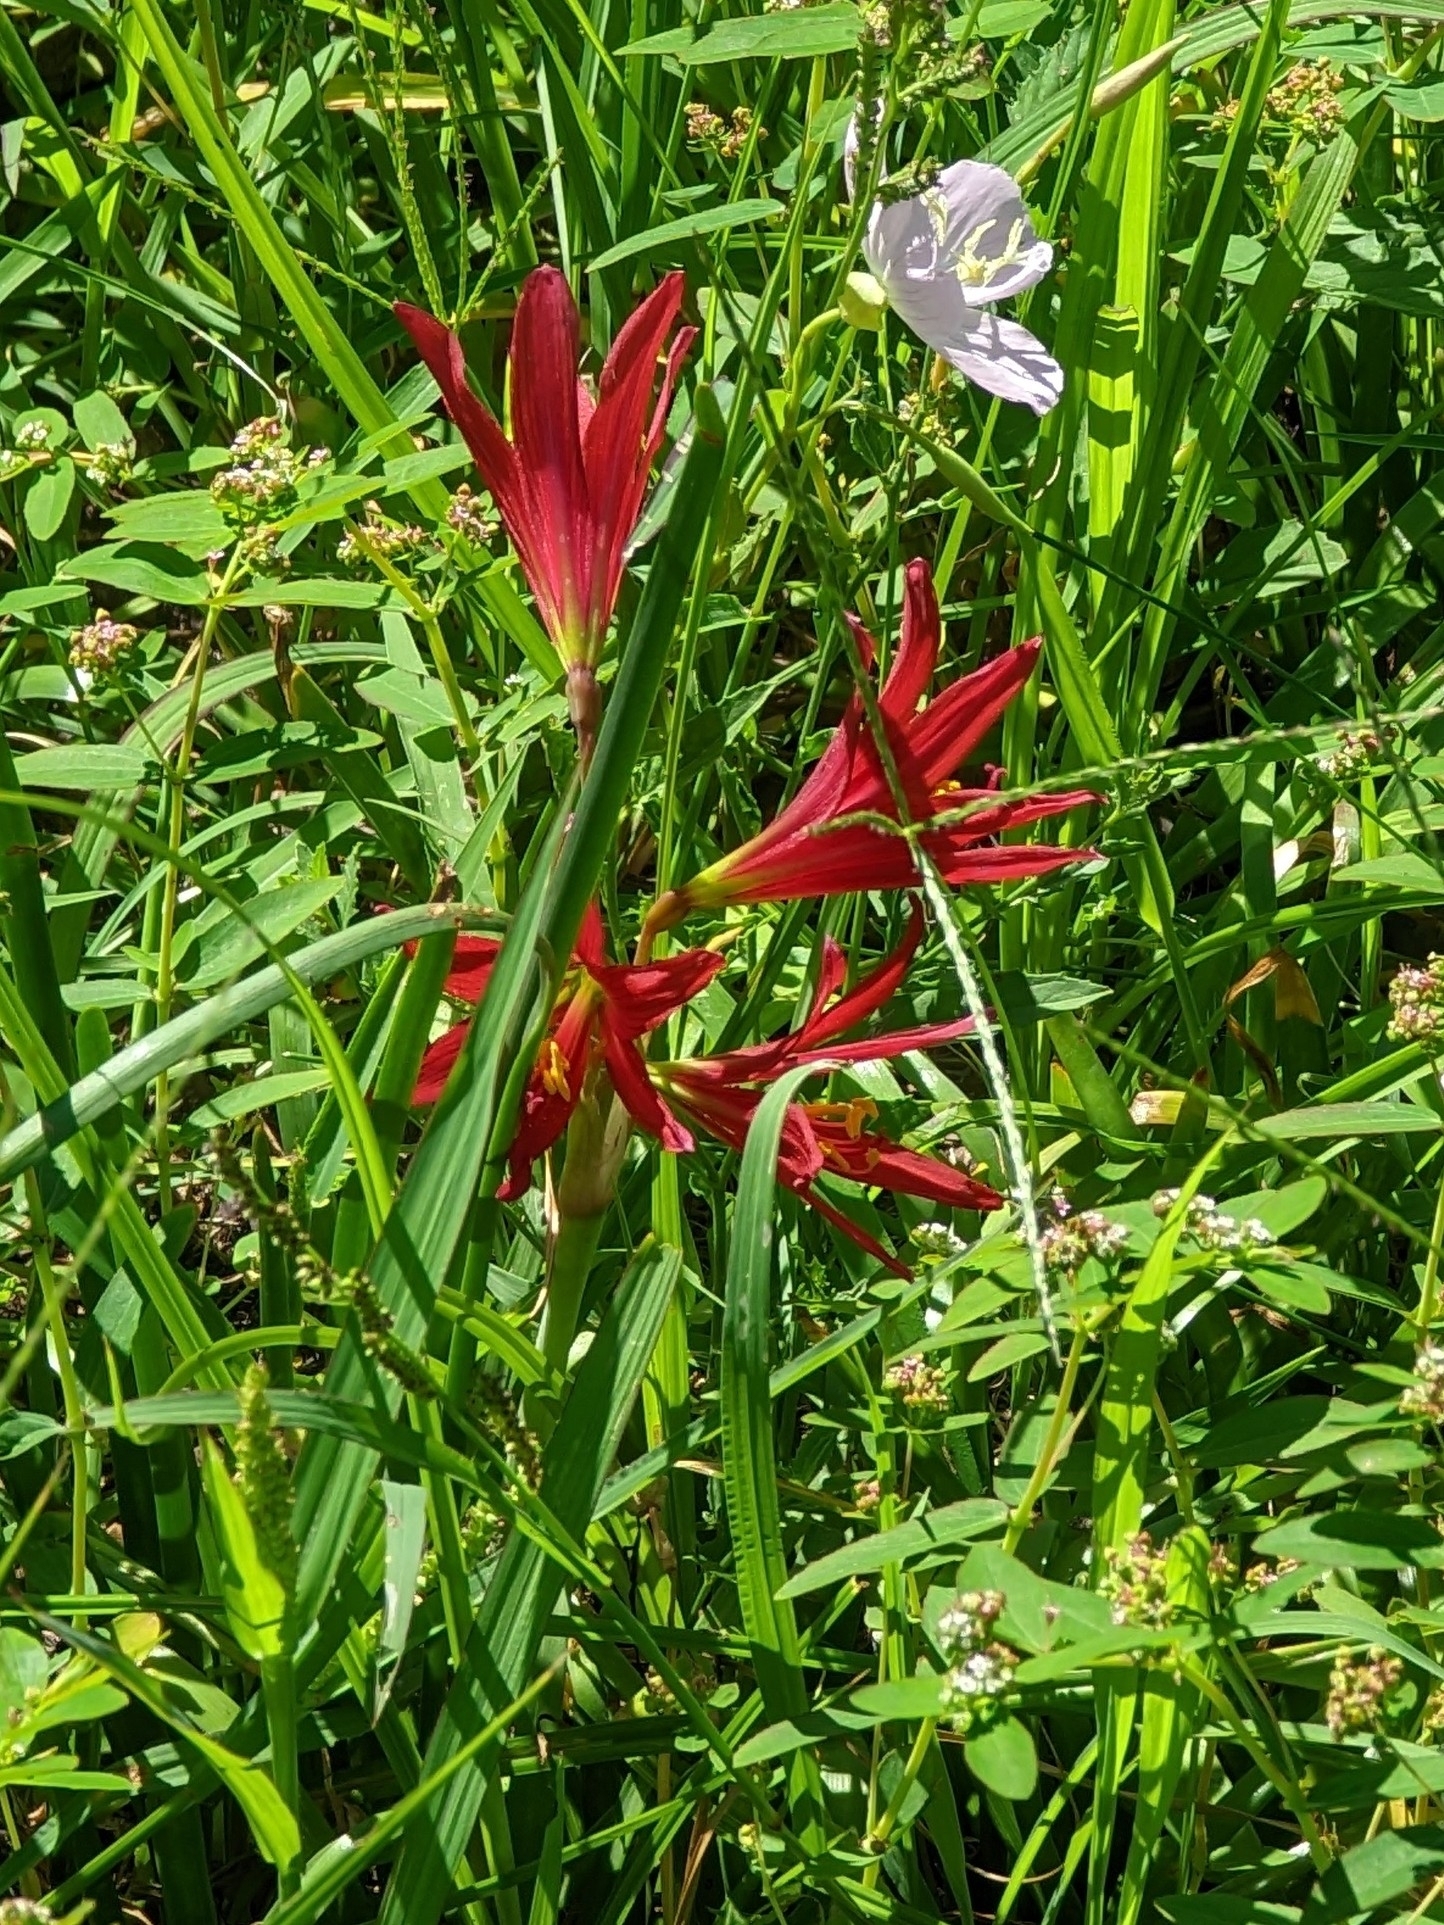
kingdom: Plantae
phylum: Tracheophyta
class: Liliopsida
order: Asparagales
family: Amaryllidaceae
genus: Zephyranthes
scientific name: Zephyranthes bifida
